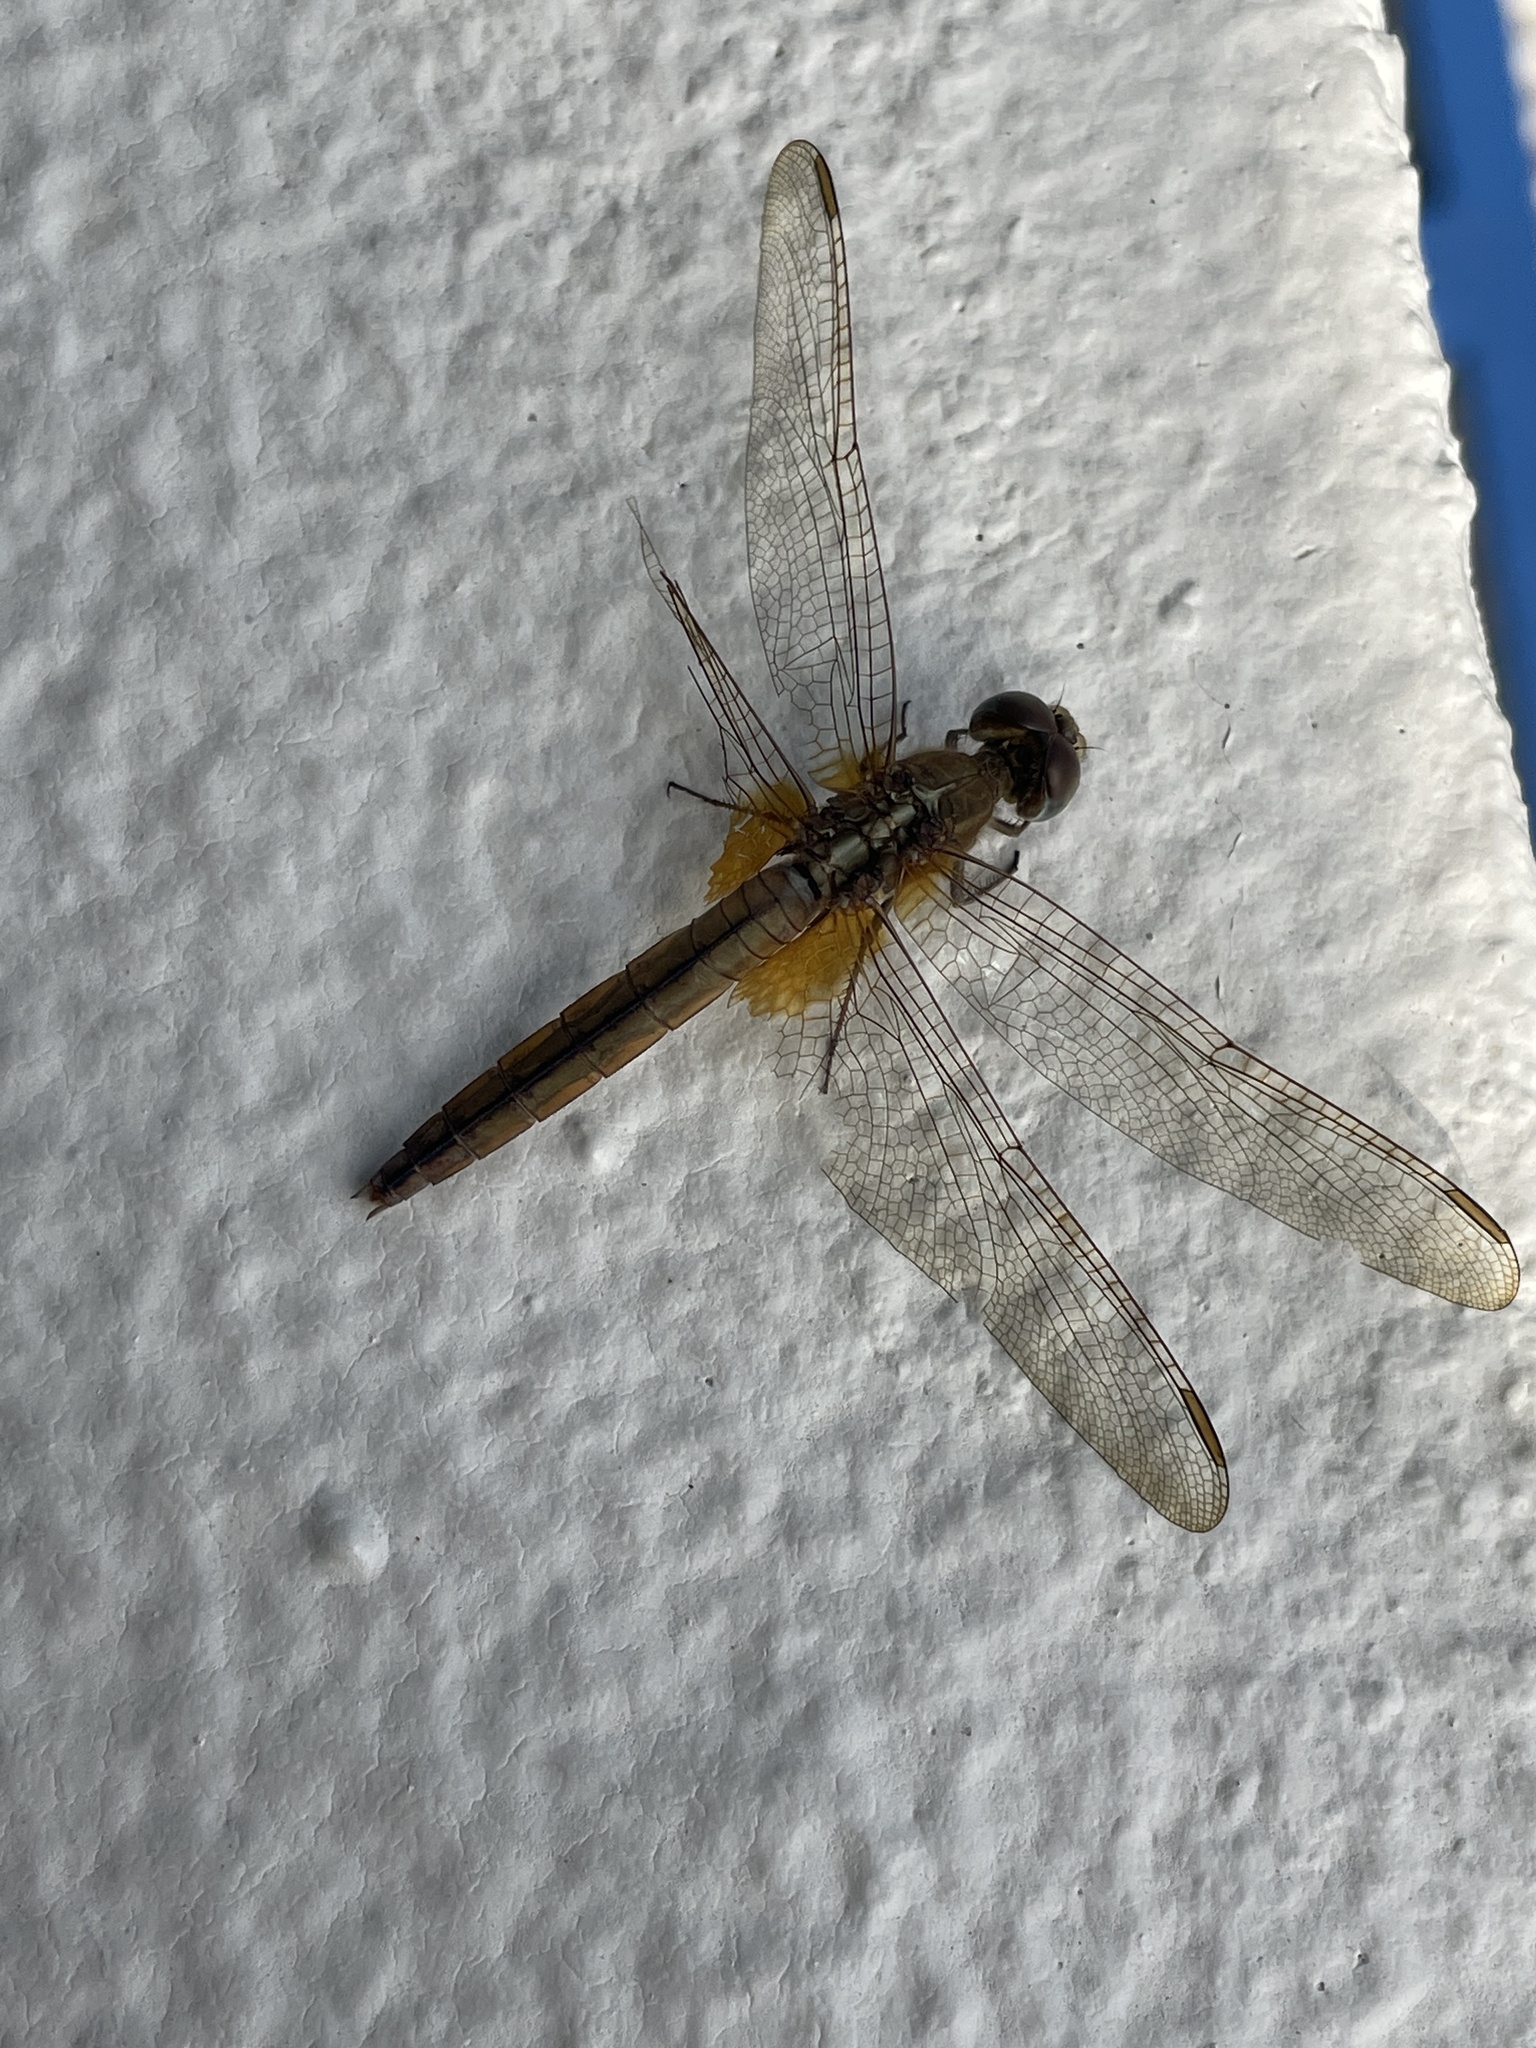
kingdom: Animalia
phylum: Arthropoda
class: Insecta
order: Odonata
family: Libellulidae
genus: Crocothemis
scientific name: Crocothemis servilia
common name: Scarlet skimmer
